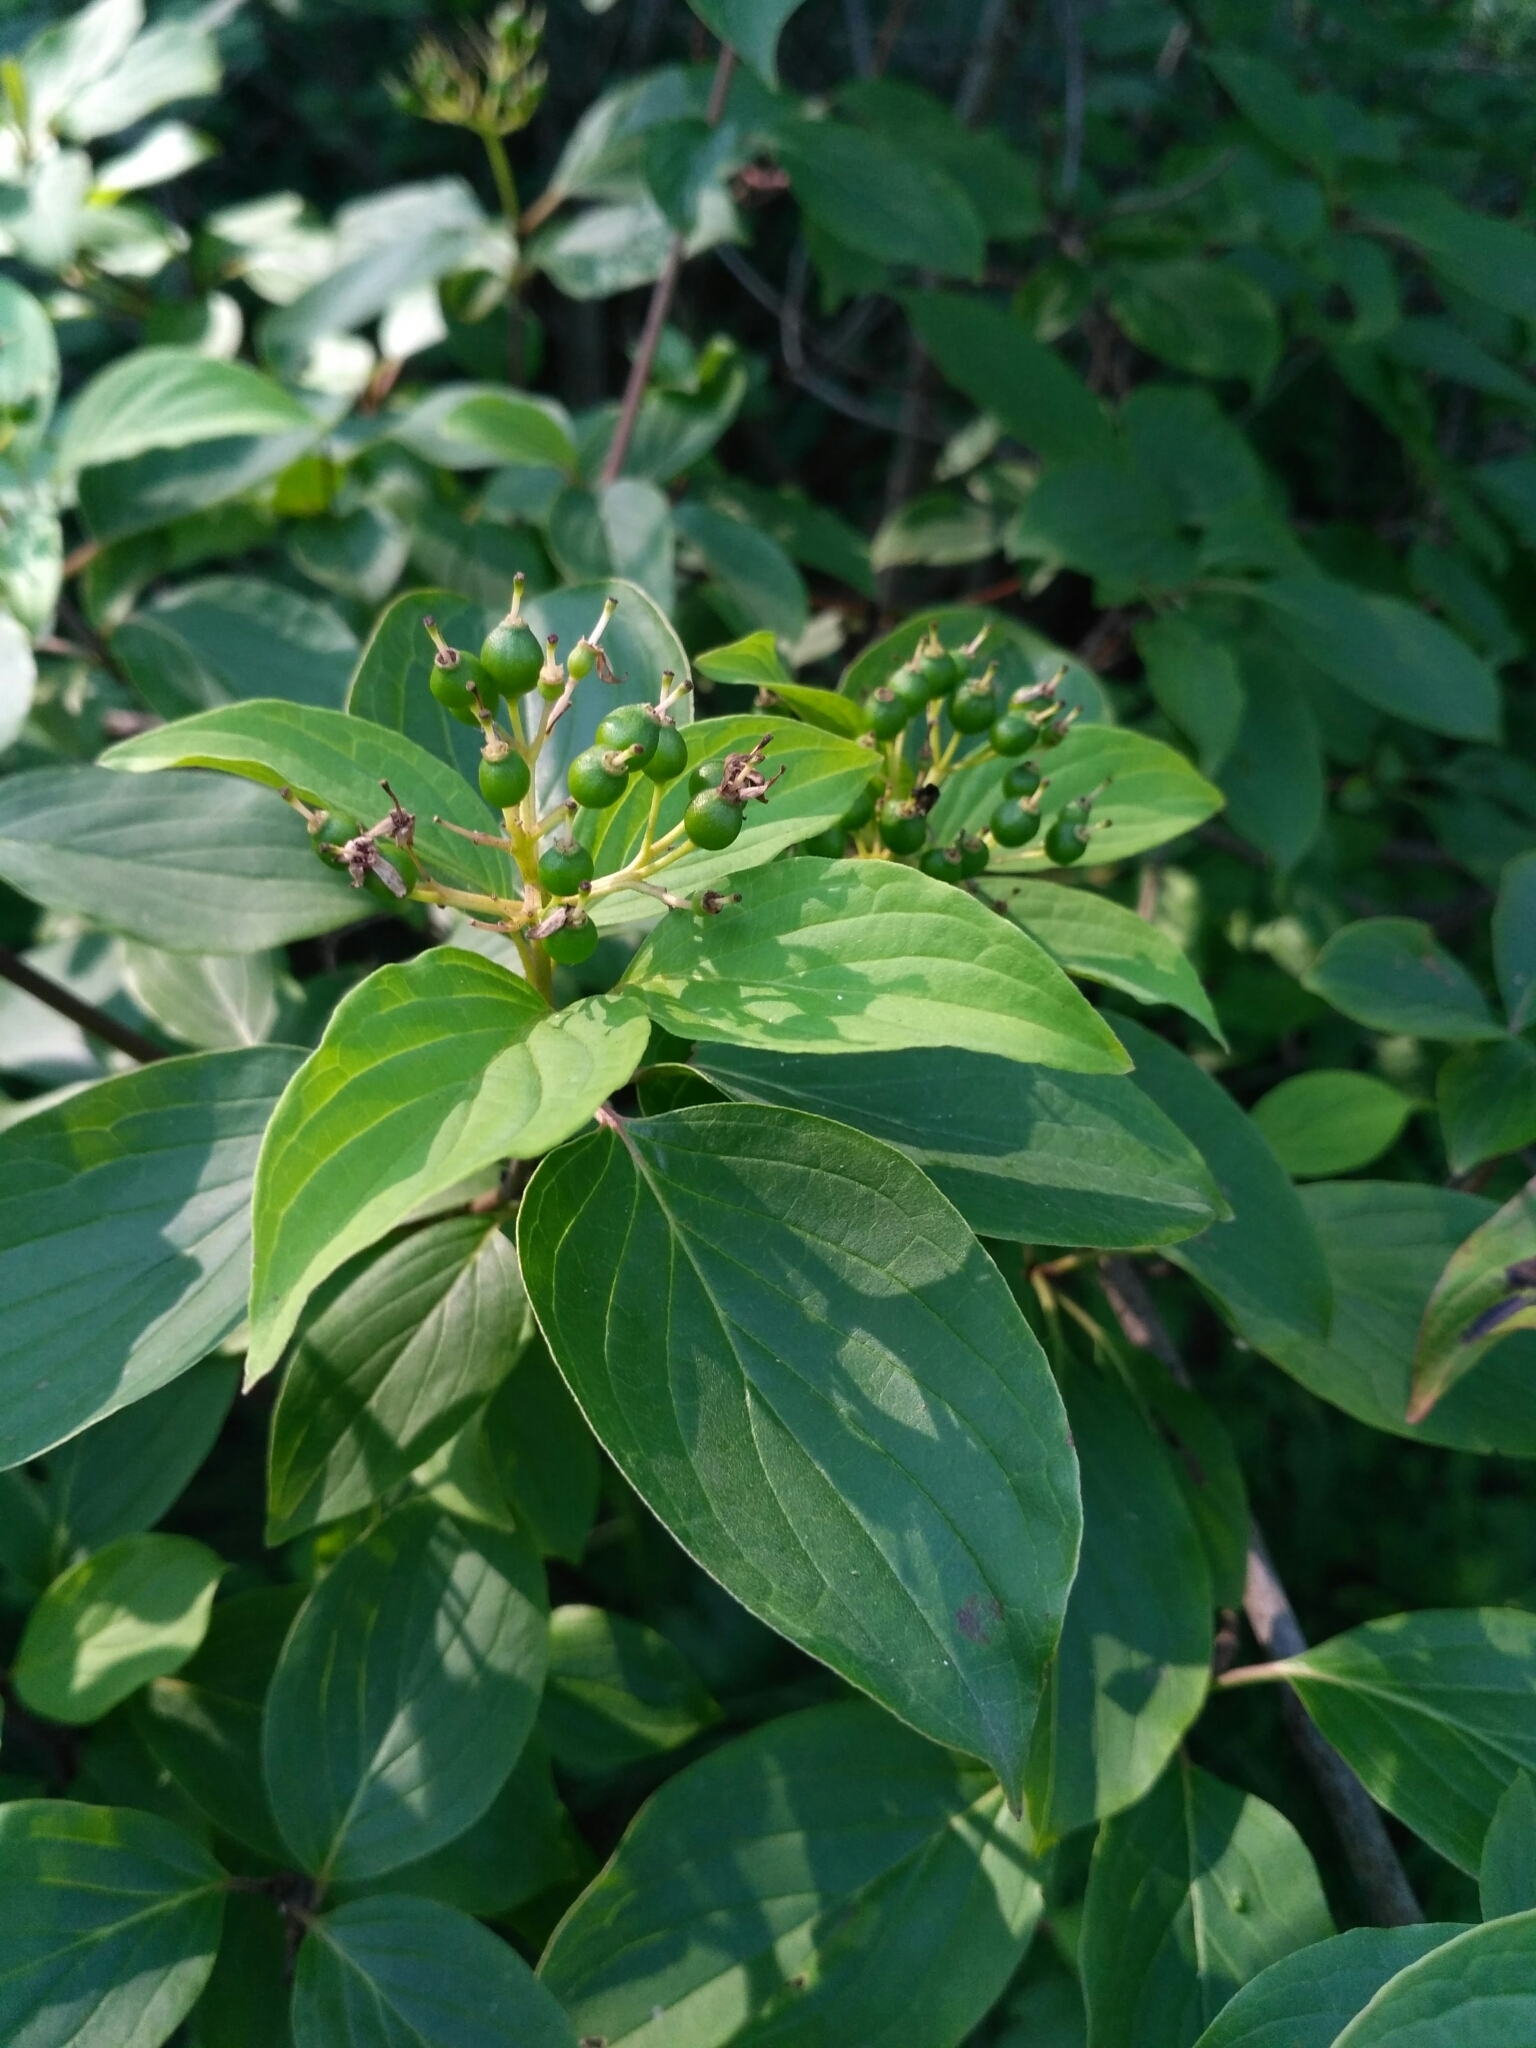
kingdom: Plantae
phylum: Tracheophyta
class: Magnoliopsida
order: Cornales
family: Cornaceae
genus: Cornus
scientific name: Cornus sanguinea
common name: Dogwood
